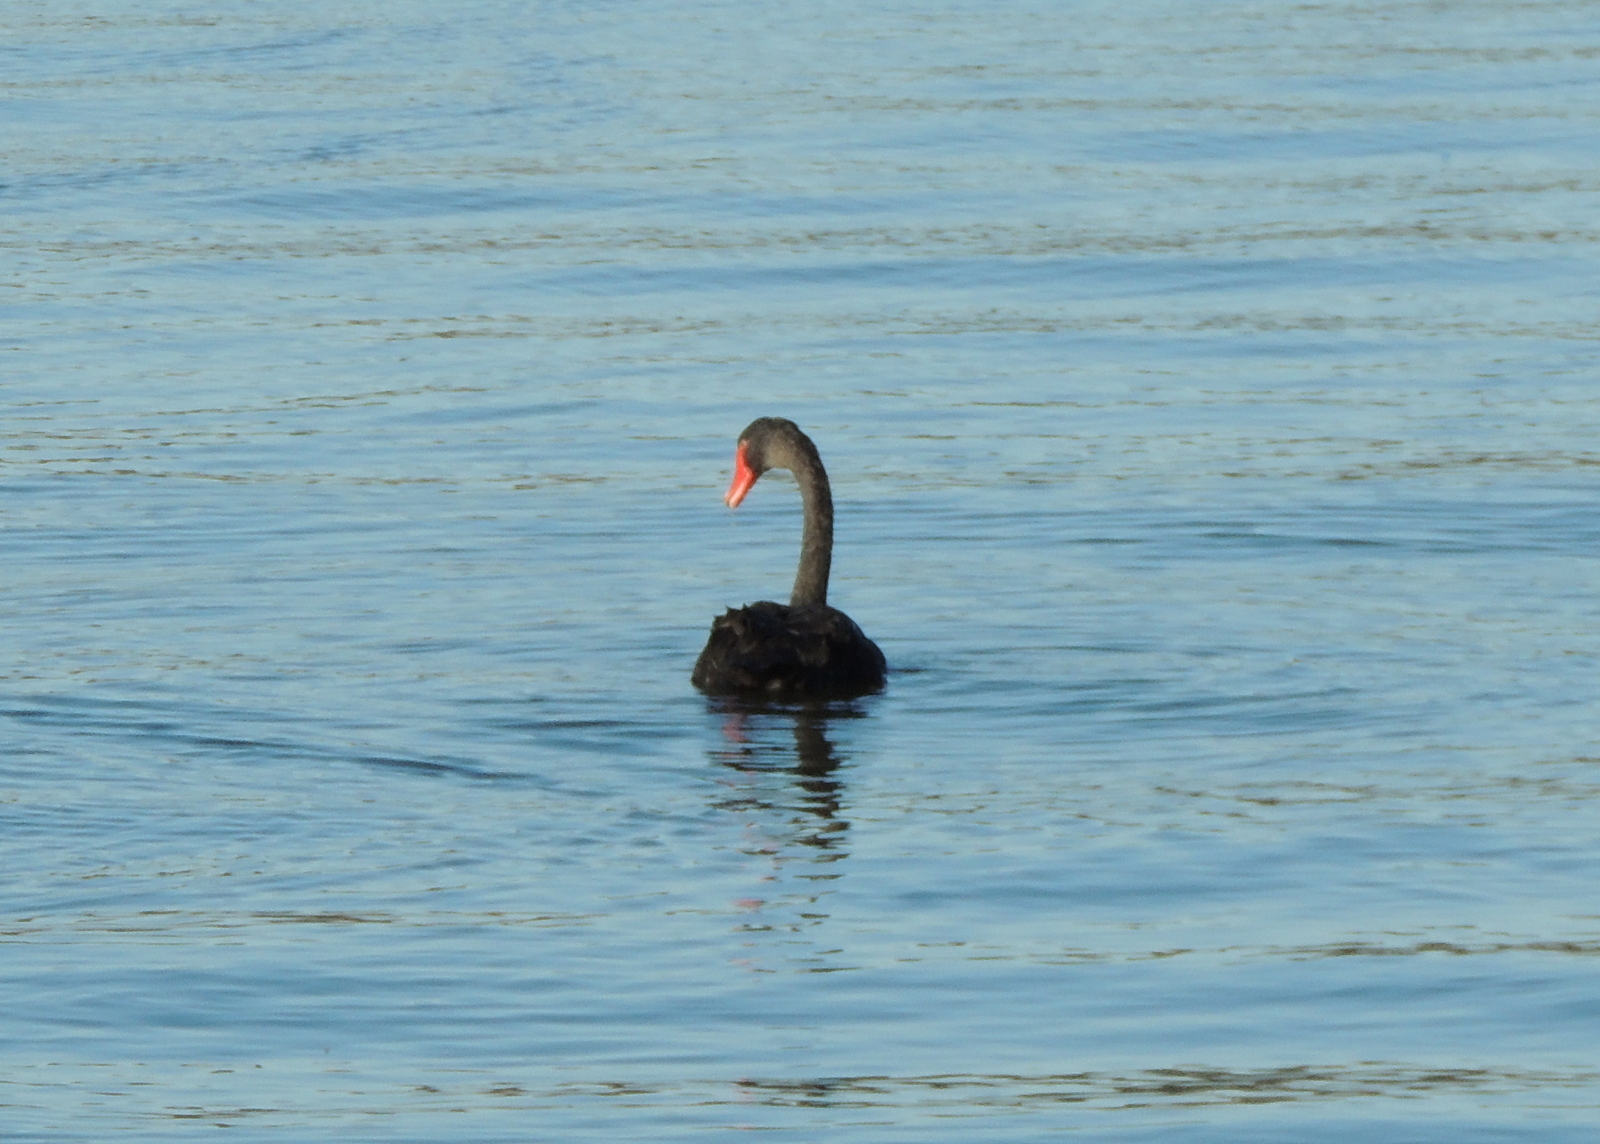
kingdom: Animalia
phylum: Chordata
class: Aves
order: Anseriformes
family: Anatidae
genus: Cygnus
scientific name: Cygnus atratus
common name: Black swan
